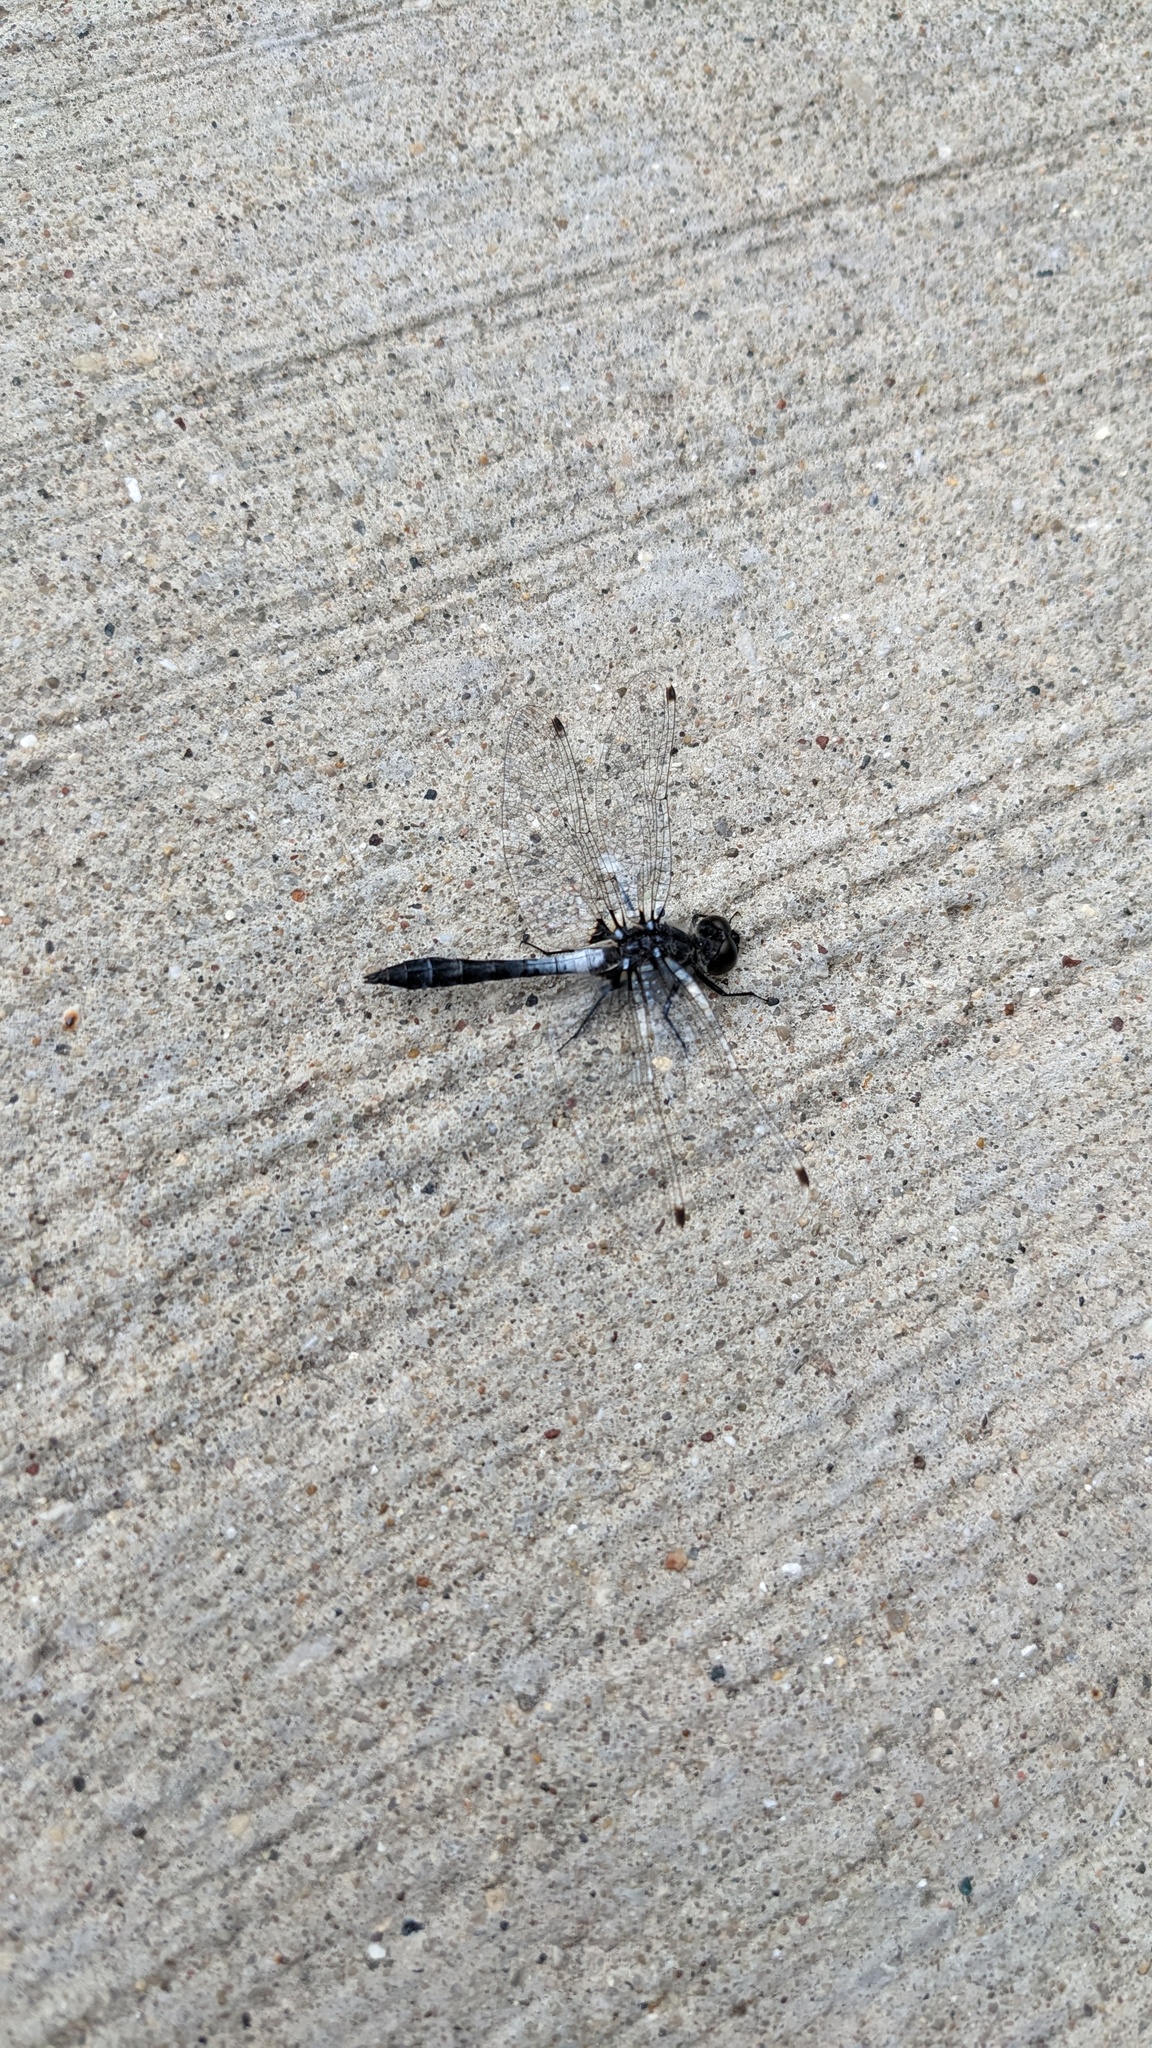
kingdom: Animalia
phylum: Arthropoda
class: Insecta
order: Odonata
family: Libellulidae
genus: Leucorrhinia
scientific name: Leucorrhinia frigida
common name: Frosted whiteface
